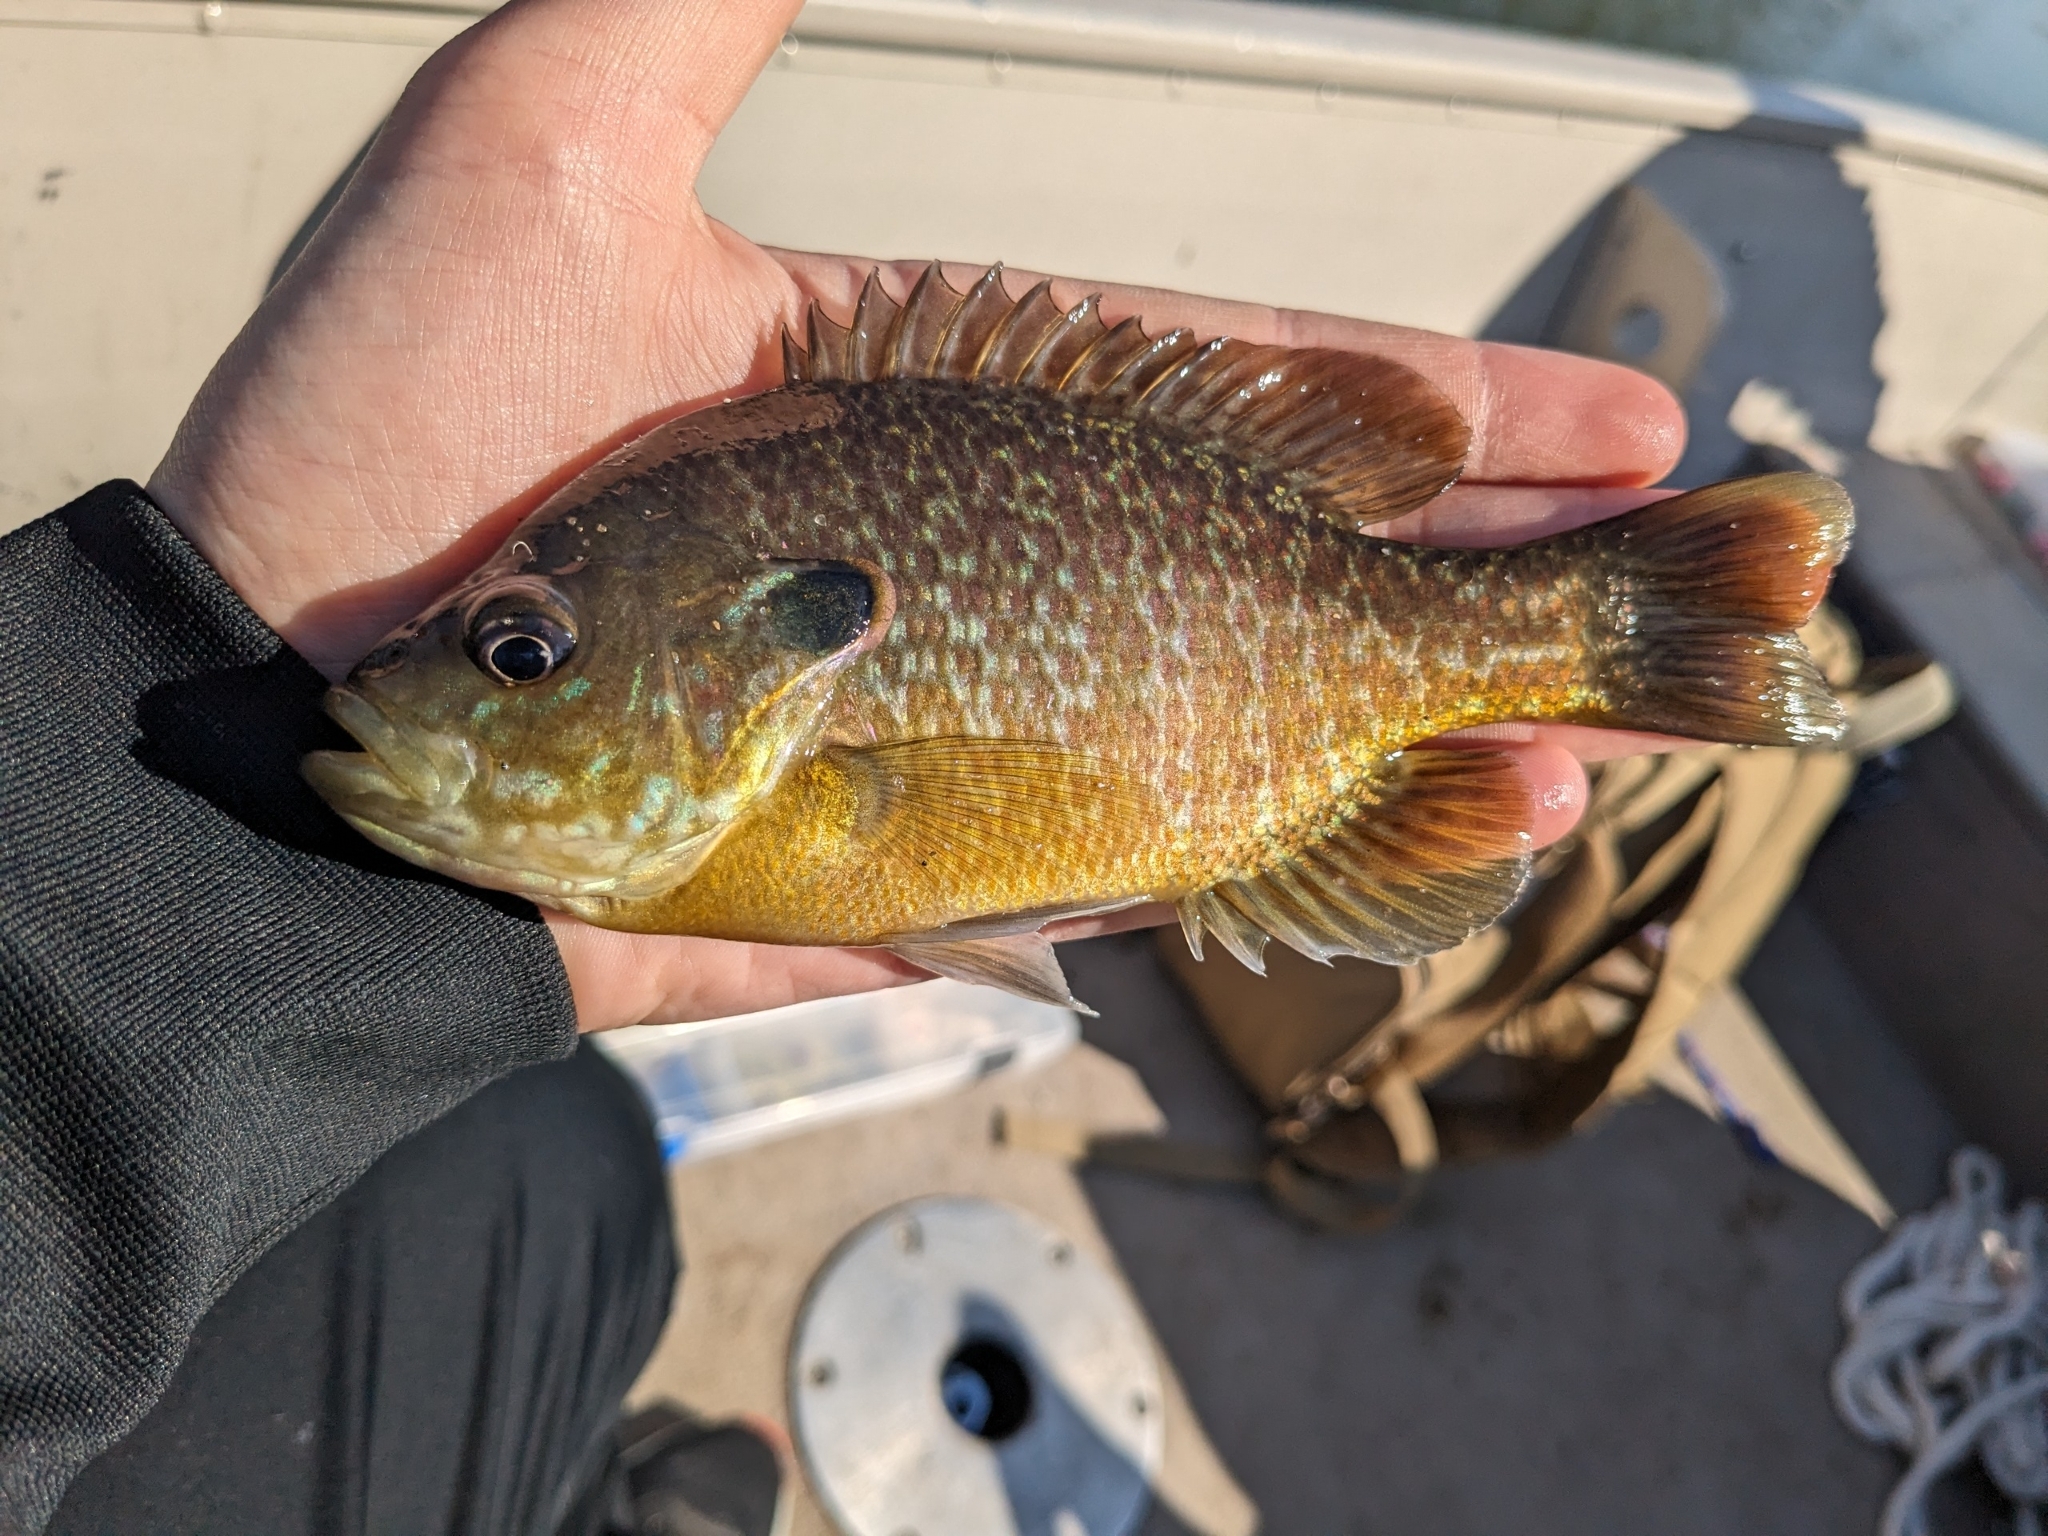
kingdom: Animalia
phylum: Chordata
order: Perciformes
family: Centrarchidae
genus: Lepomis
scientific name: Lepomis
